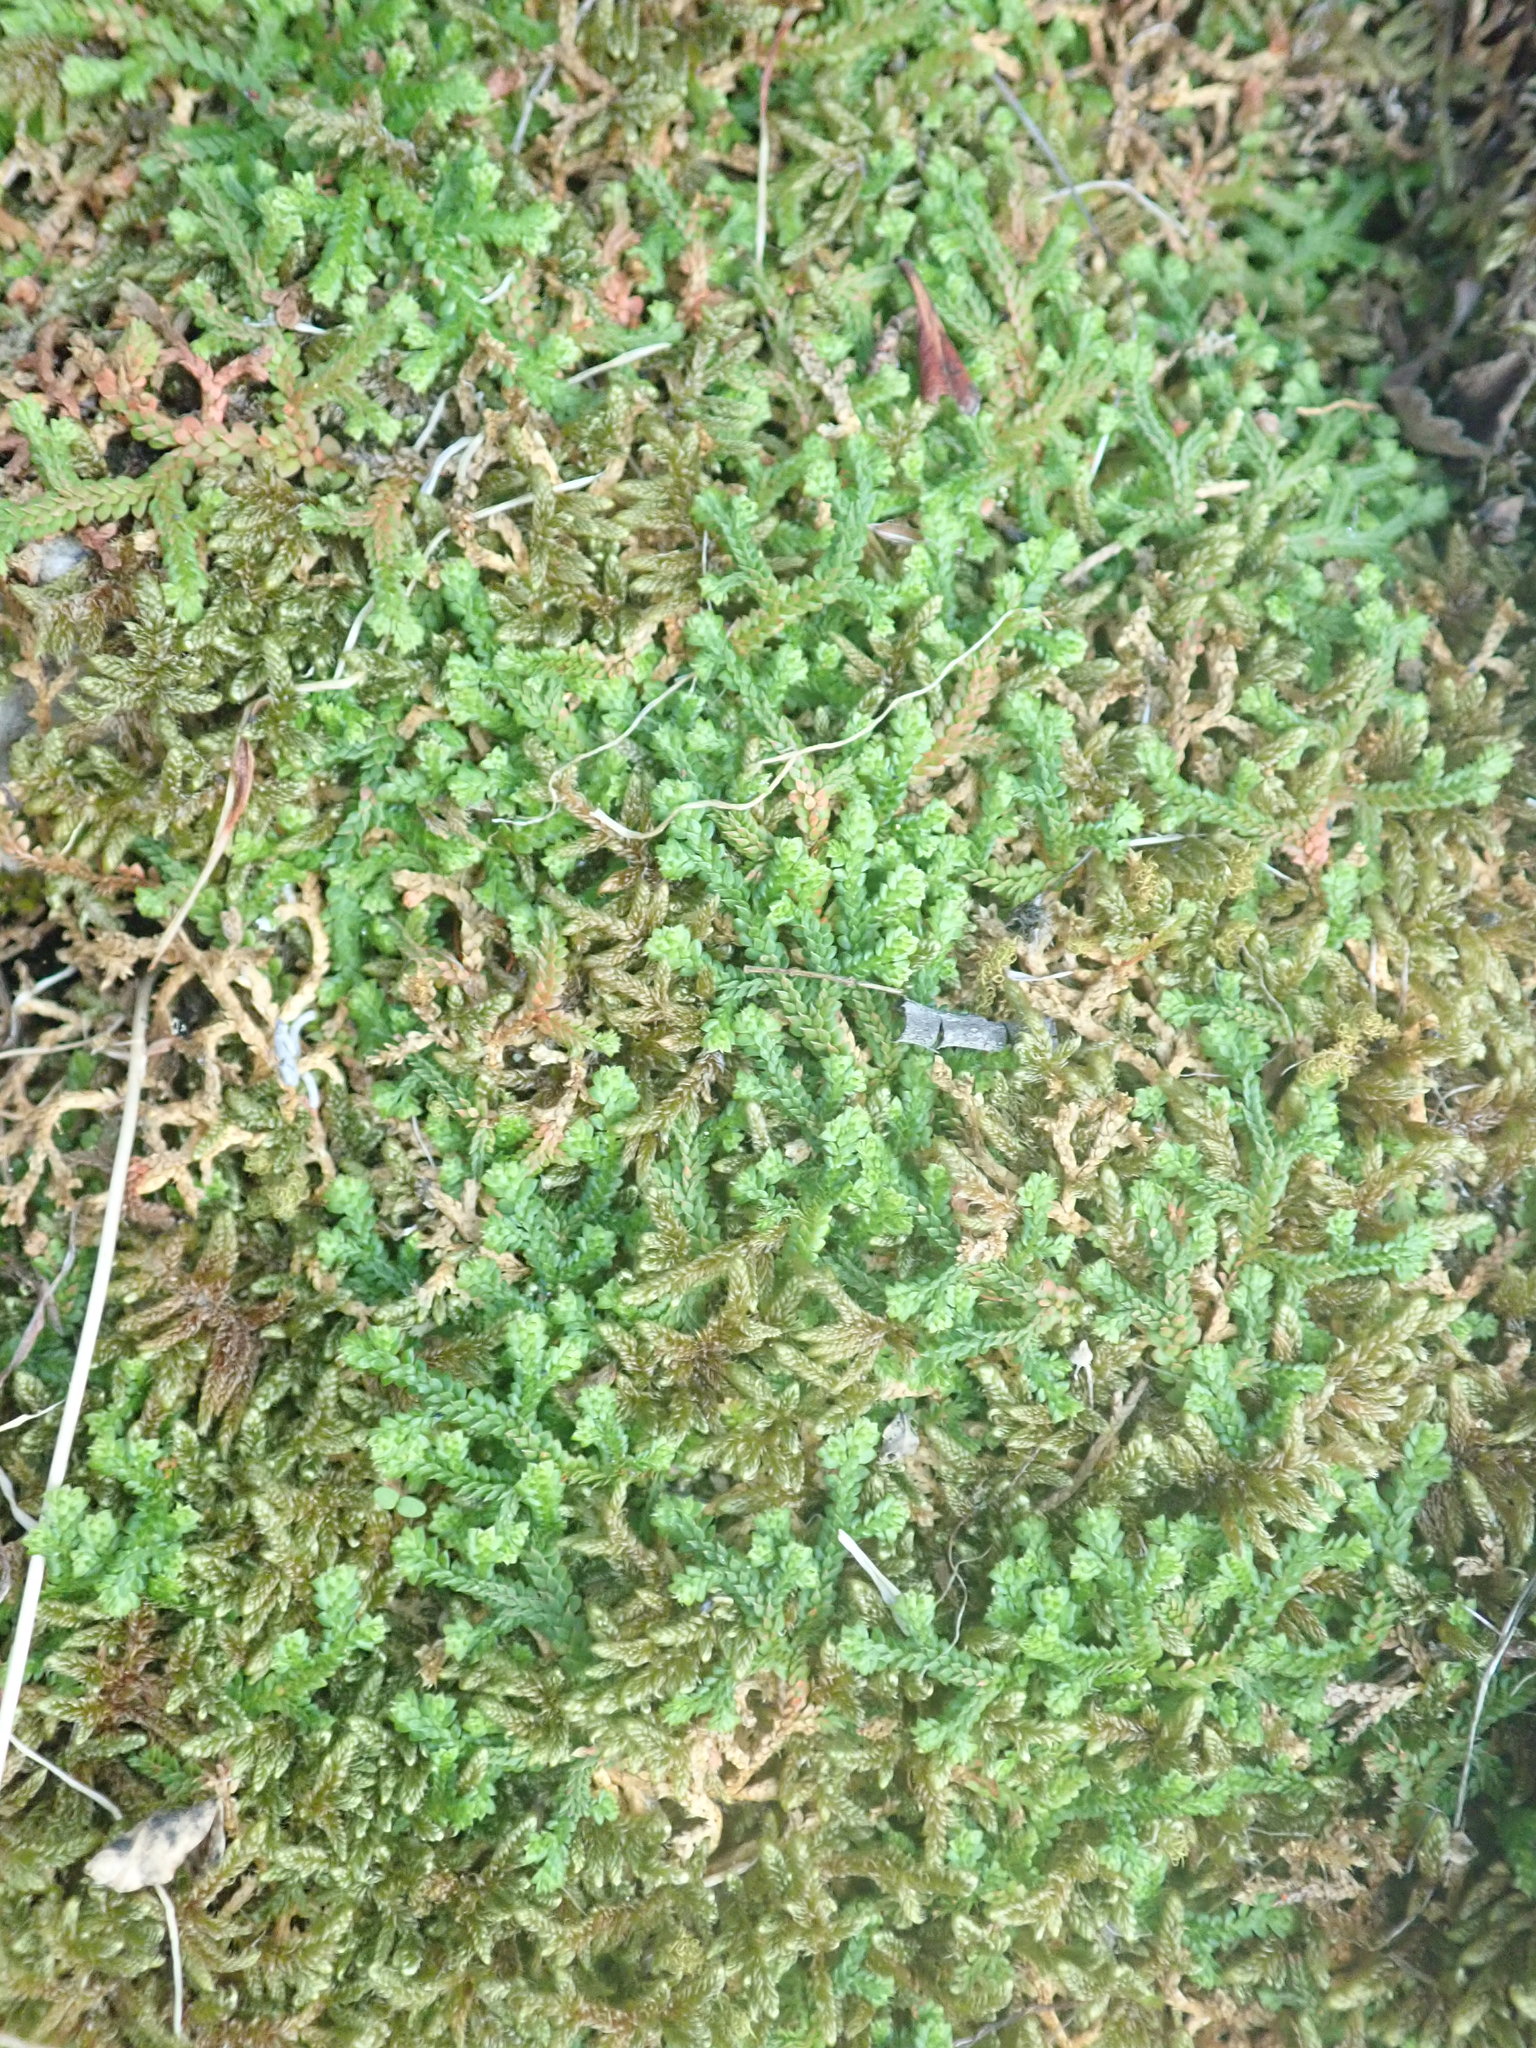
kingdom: Plantae
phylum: Tracheophyta
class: Lycopodiopsida
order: Selaginellales
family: Selaginellaceae
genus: Selaginella
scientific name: Selaginella denticulata
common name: Toothed-leaved clubmoss
